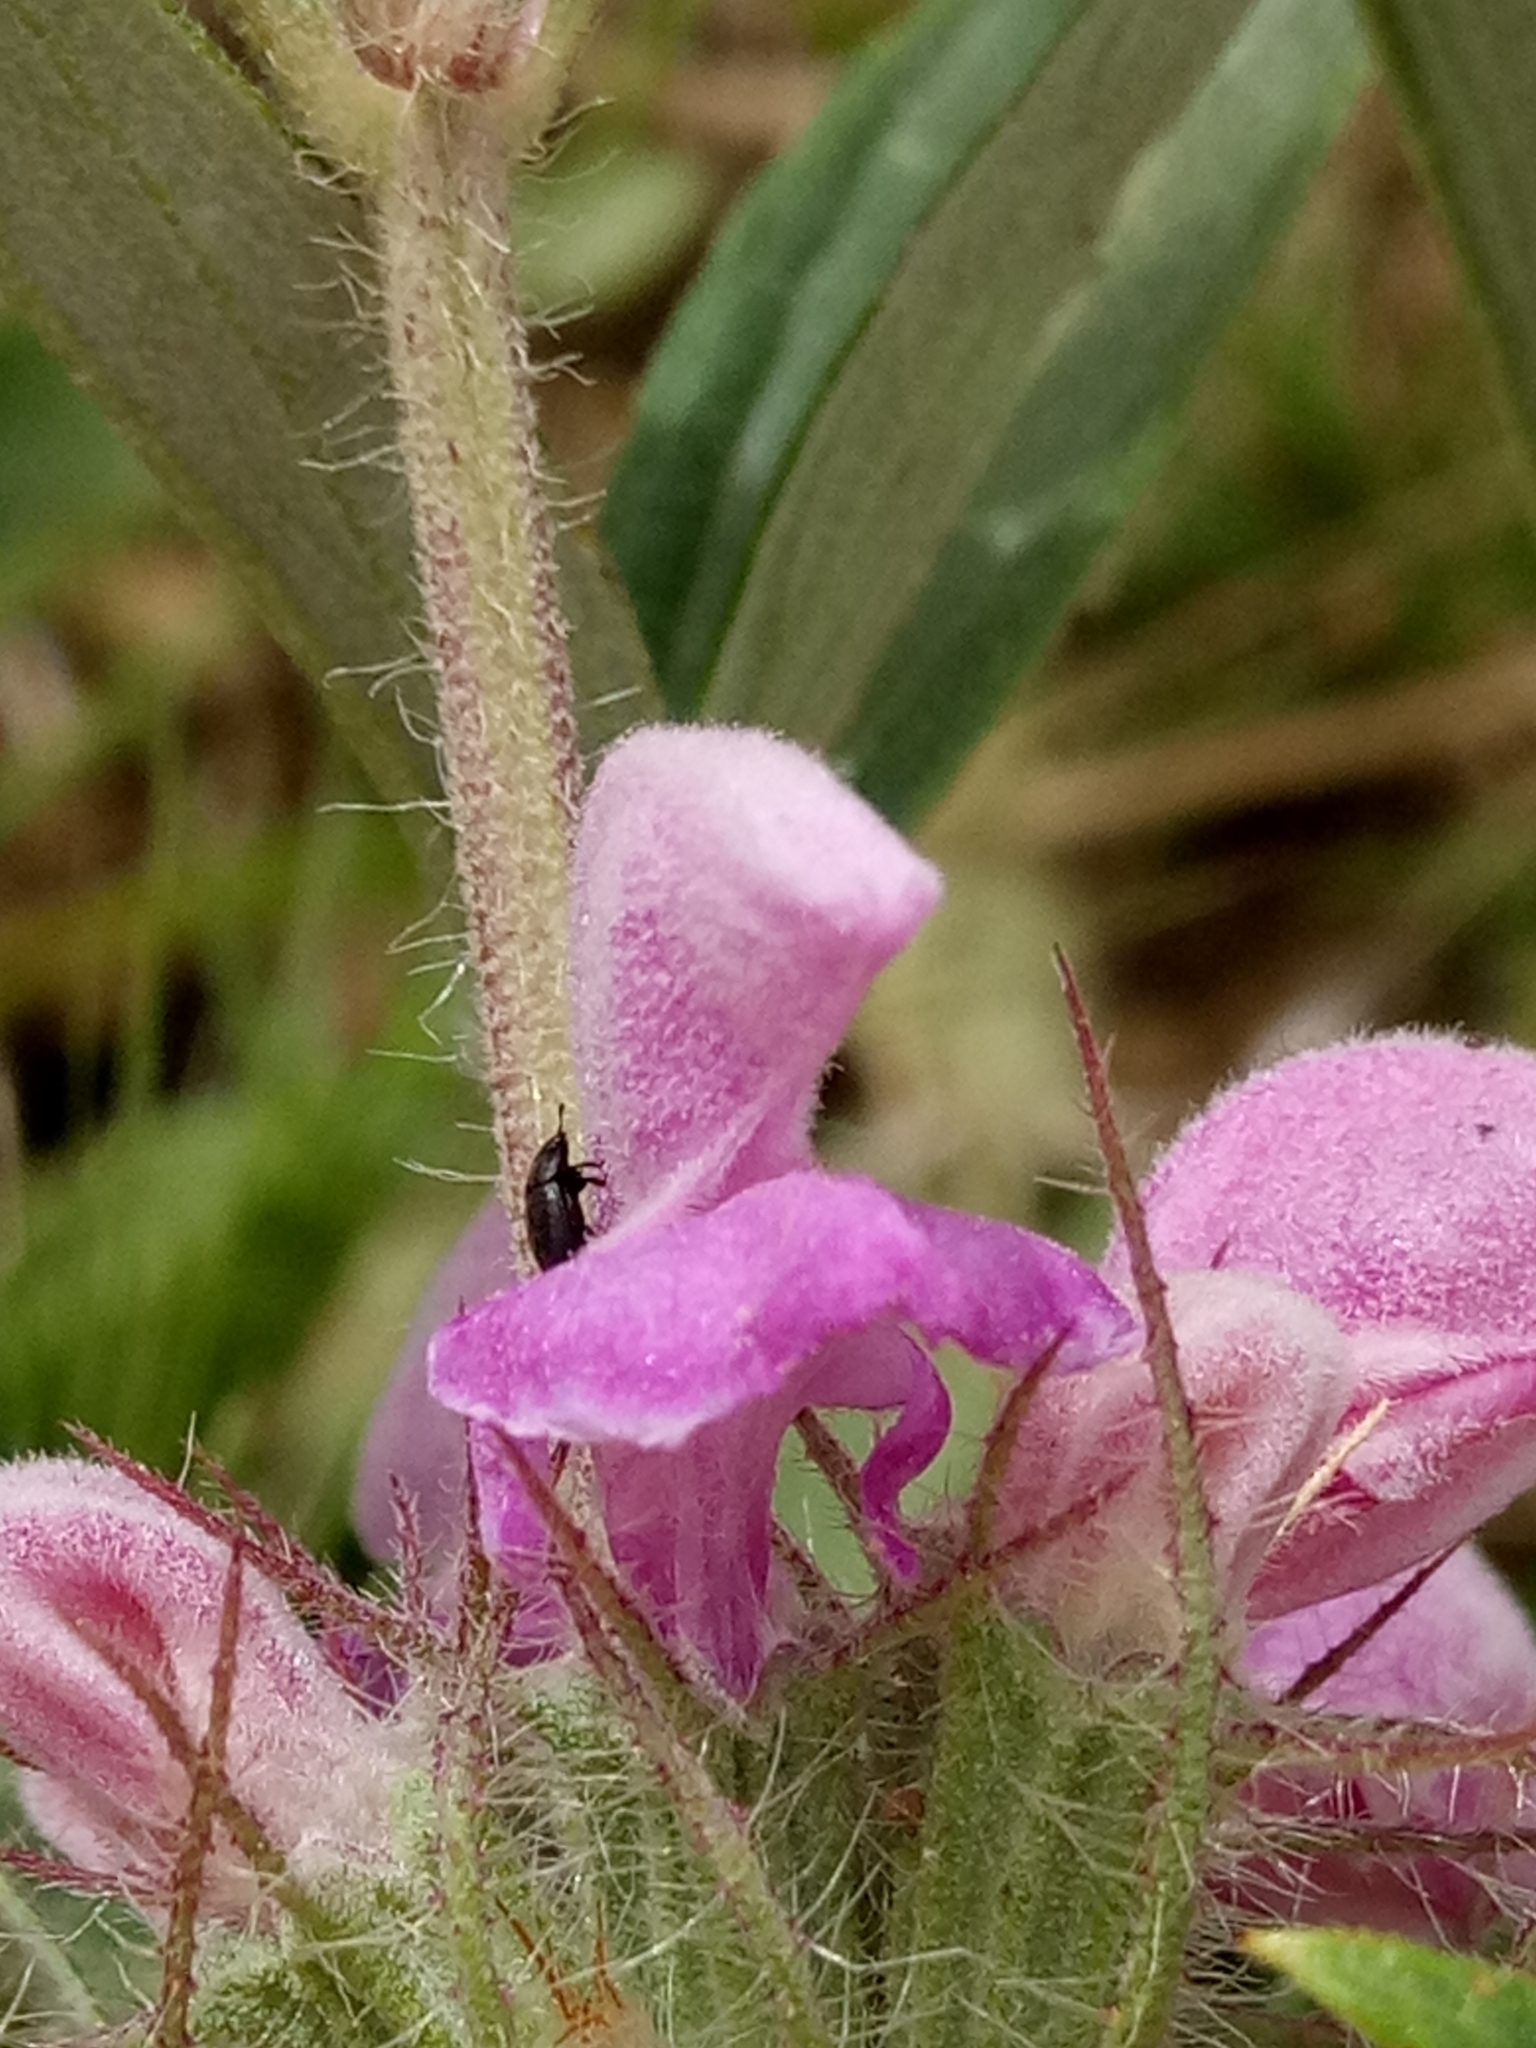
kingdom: Plantae
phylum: Tracheophyta
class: Magnoliopsida
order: Lamiales
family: Lamiaceae
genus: Phlomis
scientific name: Phlomis herba-venti
